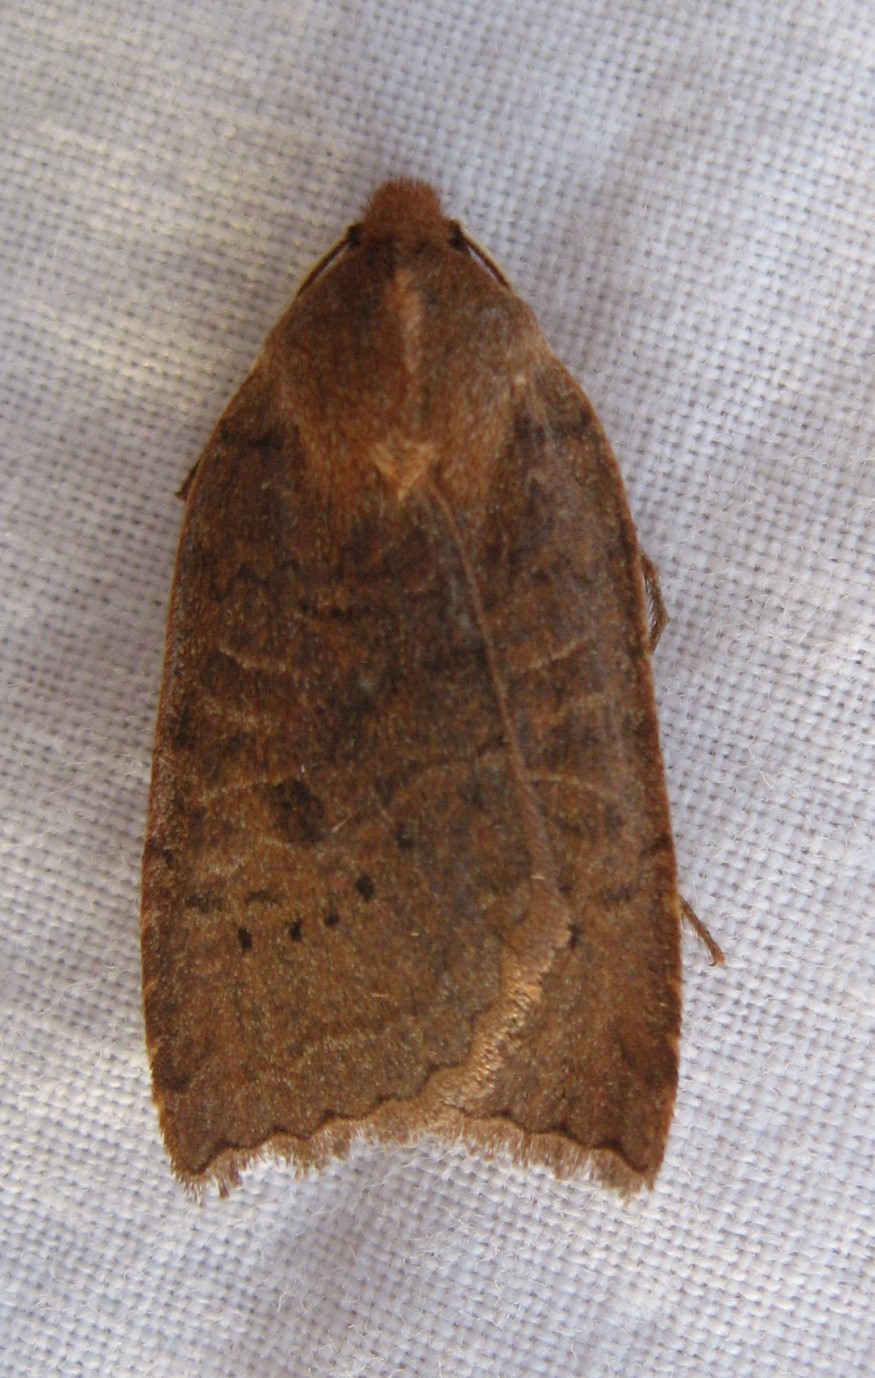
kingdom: Animalia
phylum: Arthropoda
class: Insecta
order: Lepidoptera
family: Noctuidae
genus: Epiglaea
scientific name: Epiglaea decliva
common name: Sloping sallow
